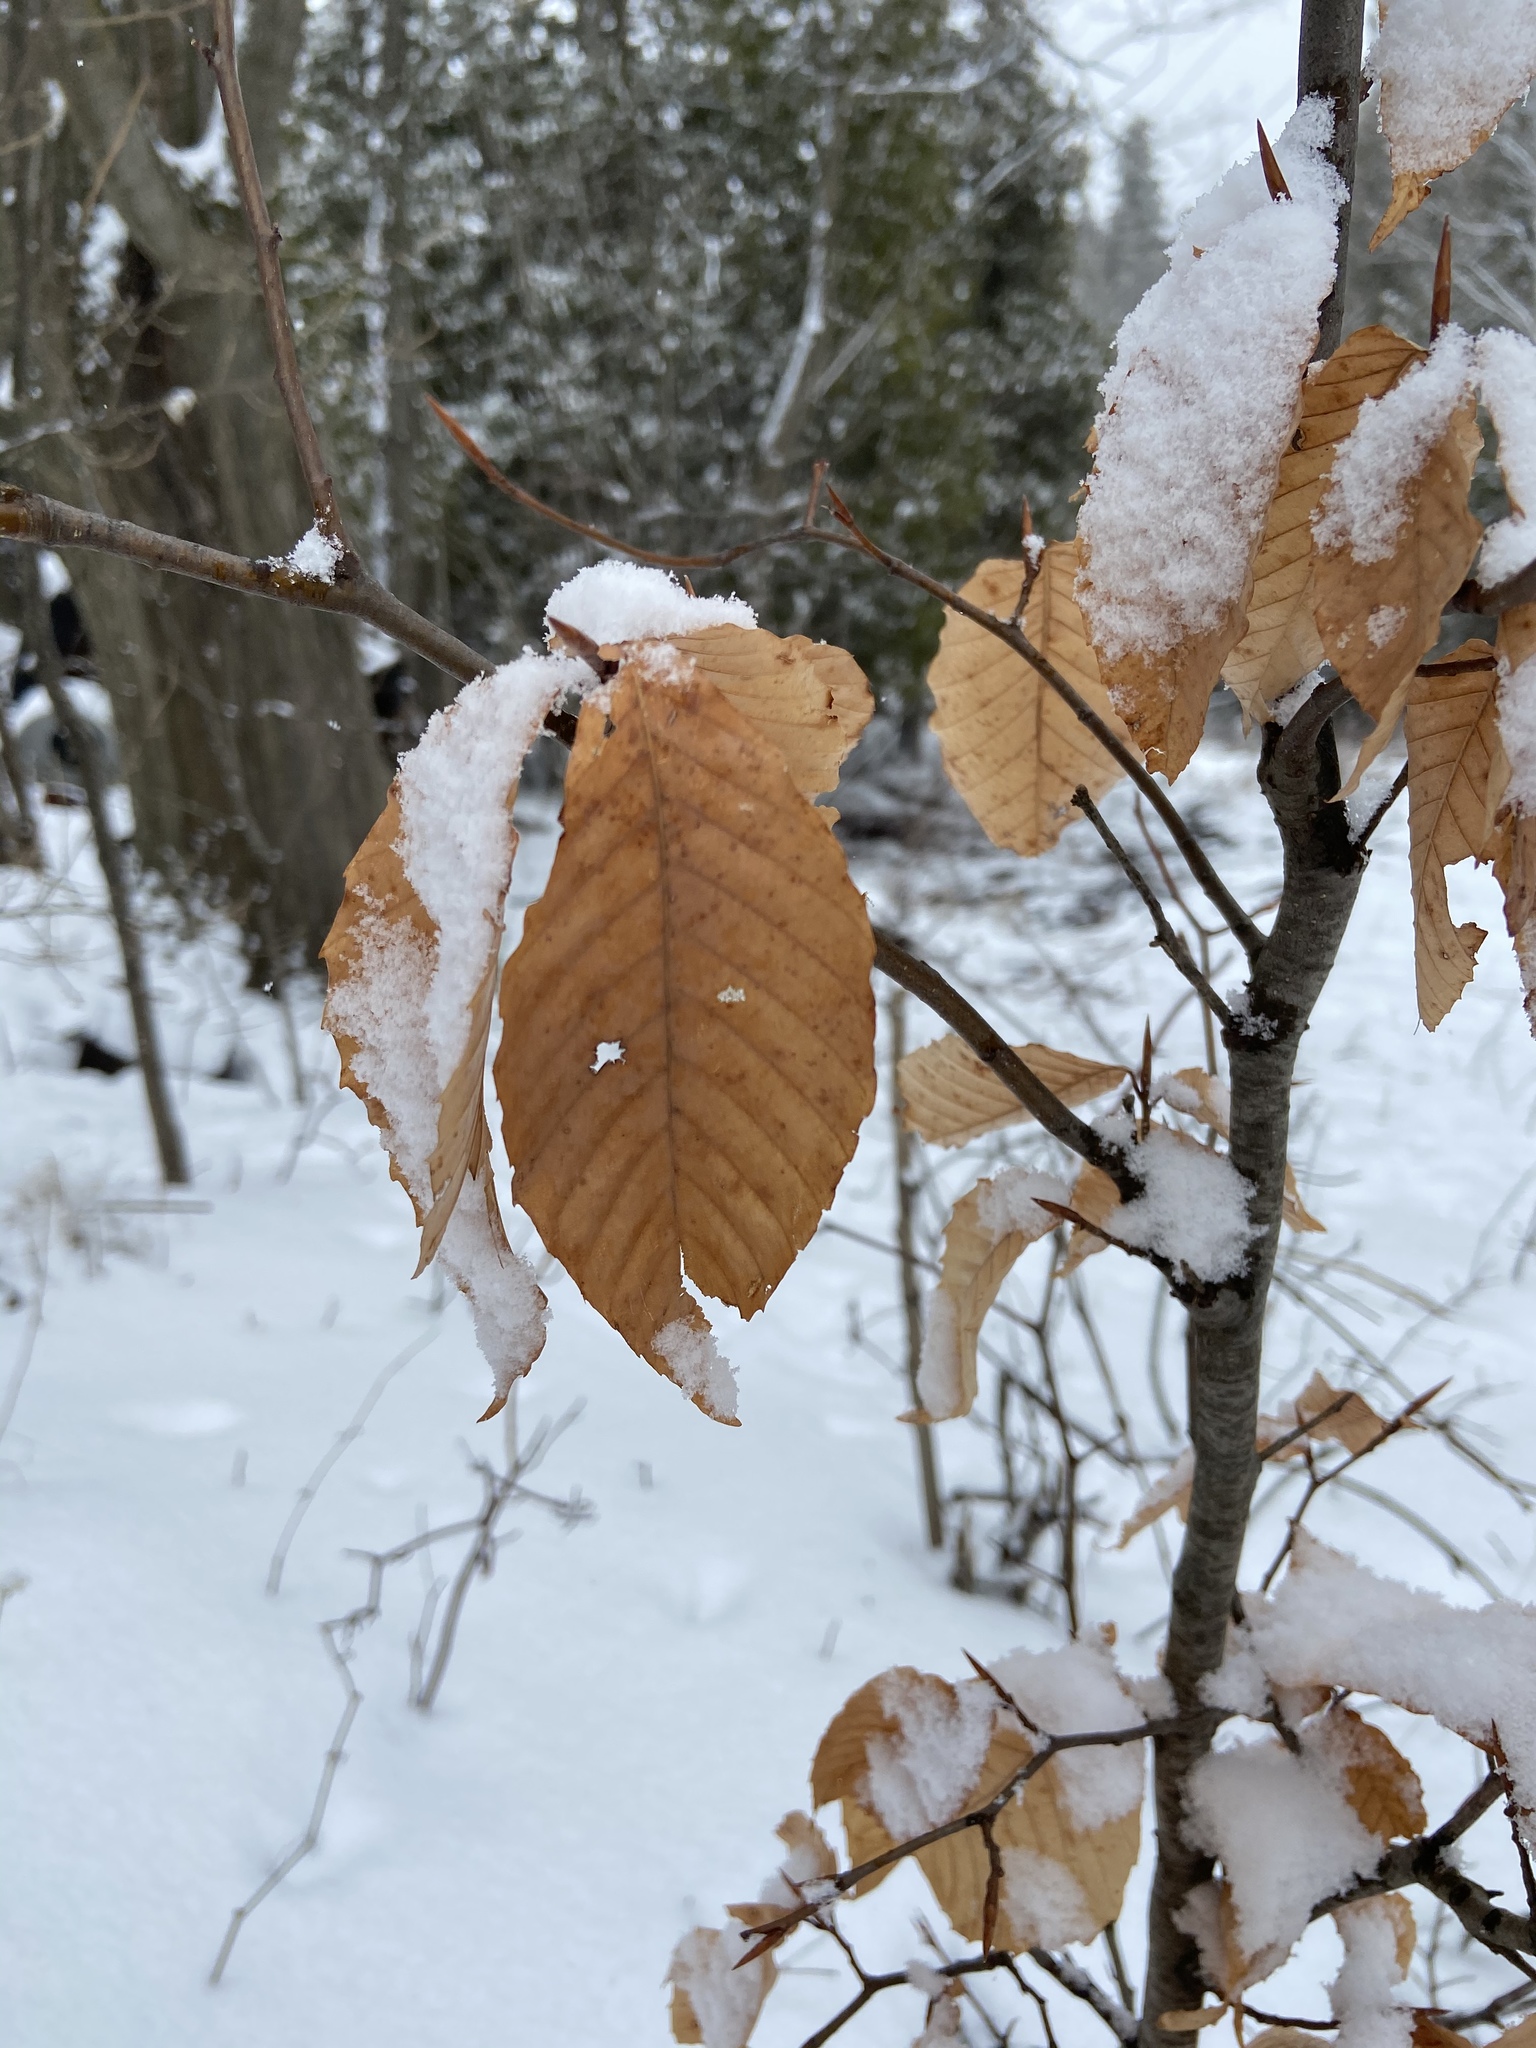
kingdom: Plantae
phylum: Tracheophyta
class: Magnoliopsida
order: Fagales
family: Fagaceae
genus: Fagus
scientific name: Fagus grandifolia
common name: American beech
